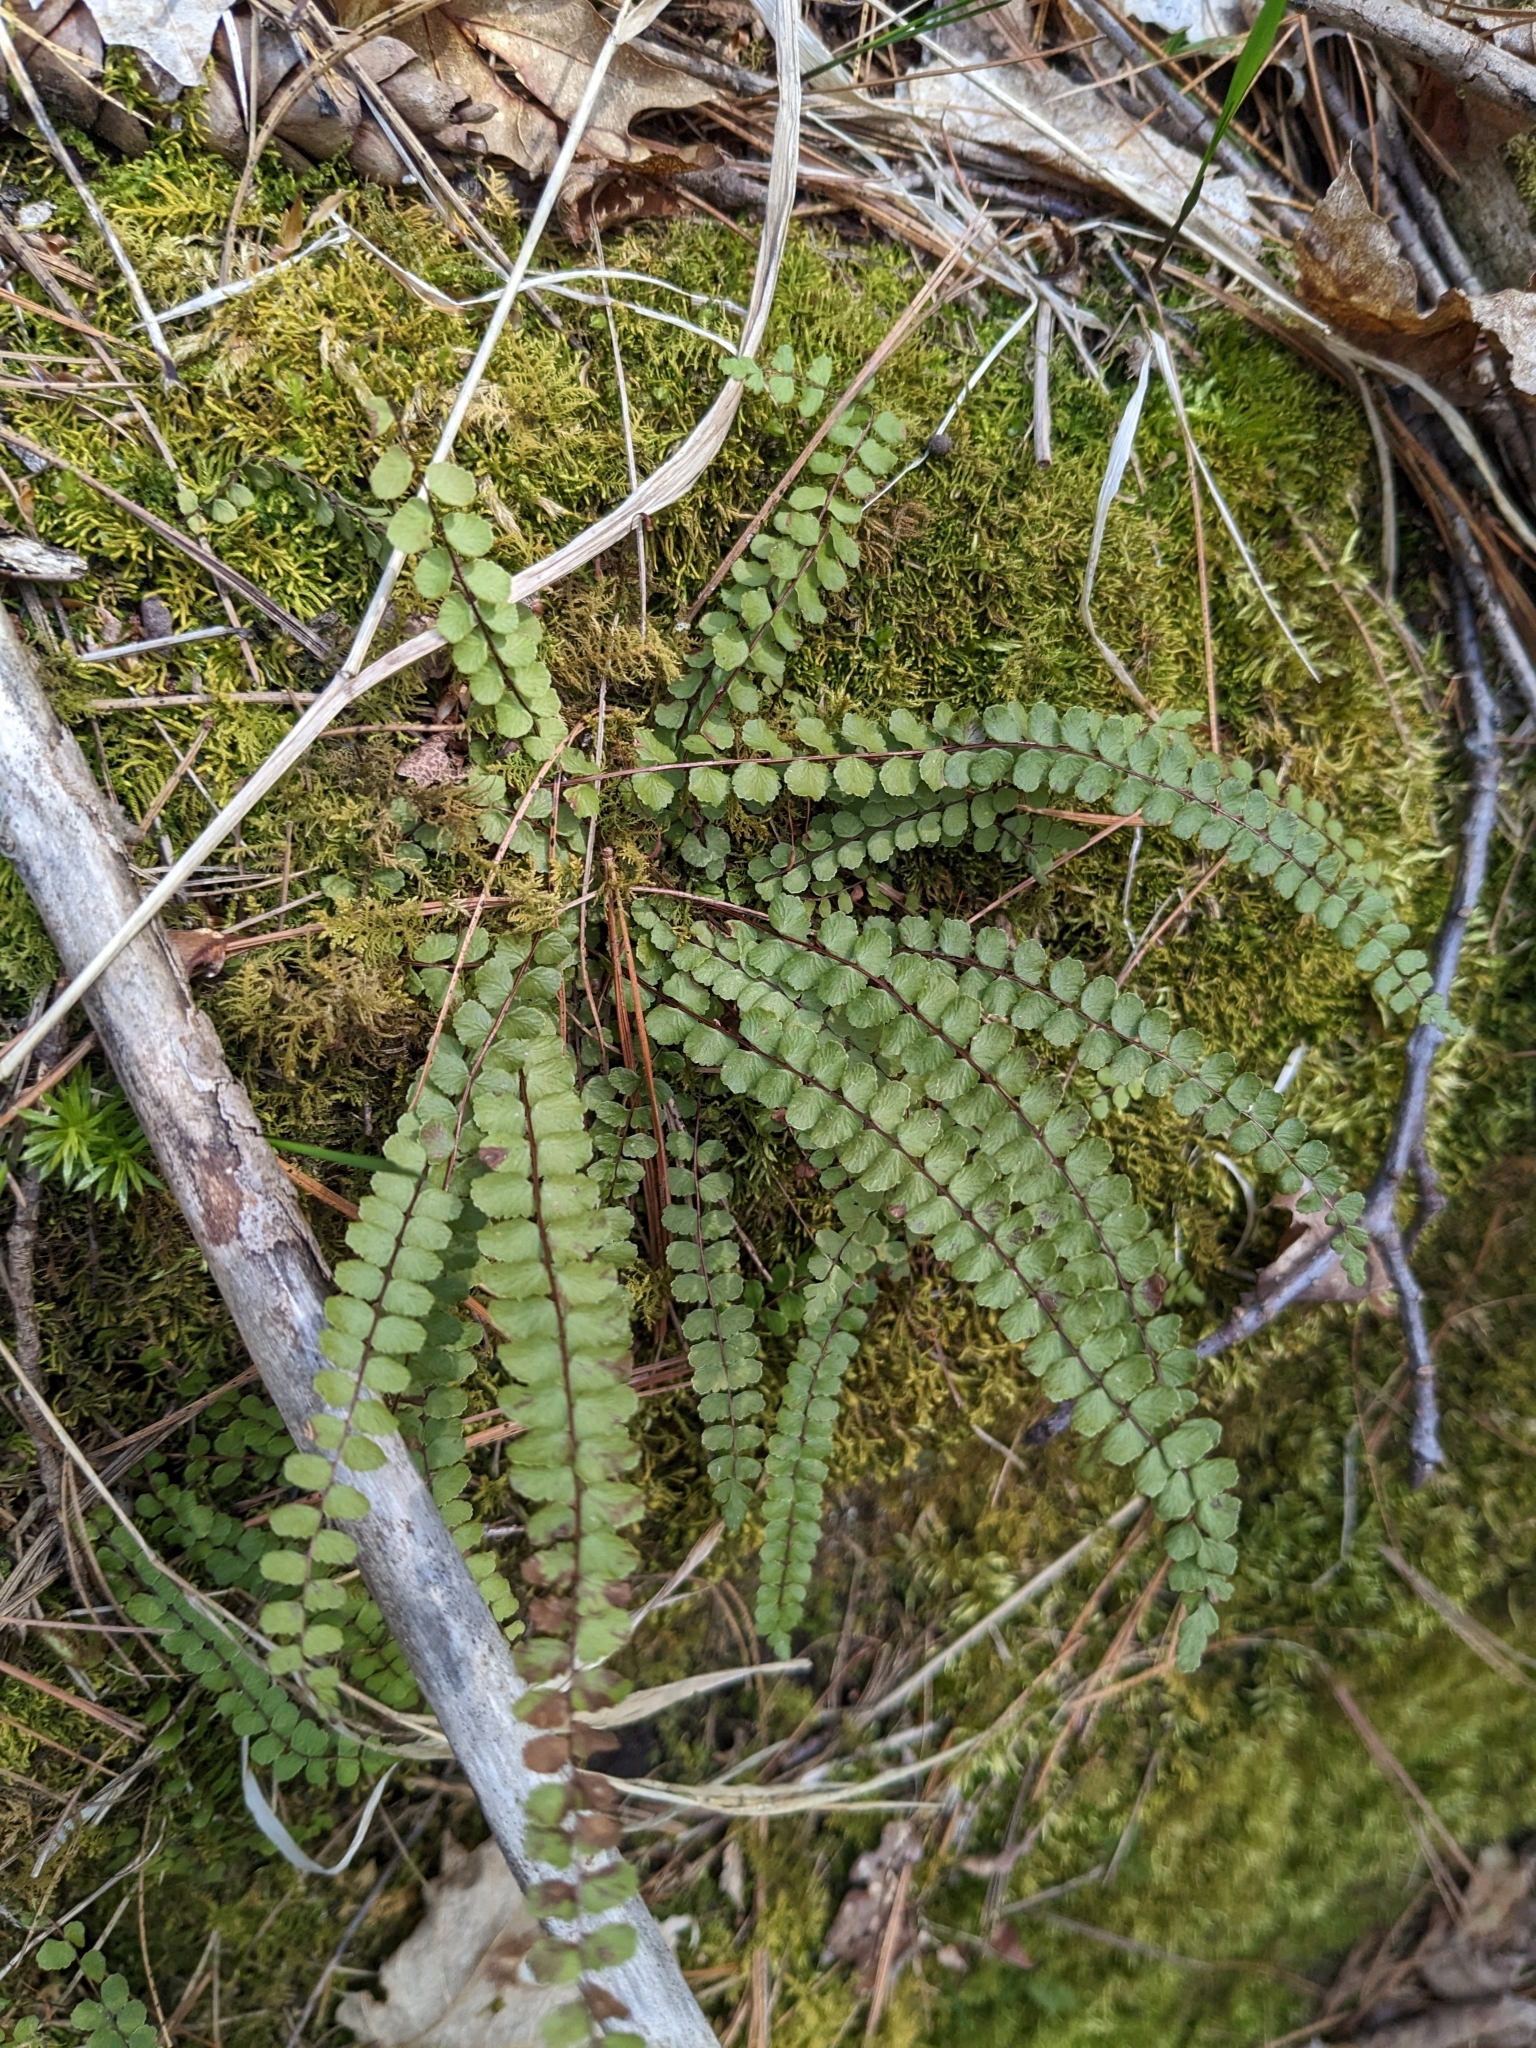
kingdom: Plantae
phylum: Tracheophyta
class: Polypodiopsida
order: Polypodiales
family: Aspleniaceae
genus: Asplenium
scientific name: Asplenium trichomanes
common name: Maidenhair spleenwort
